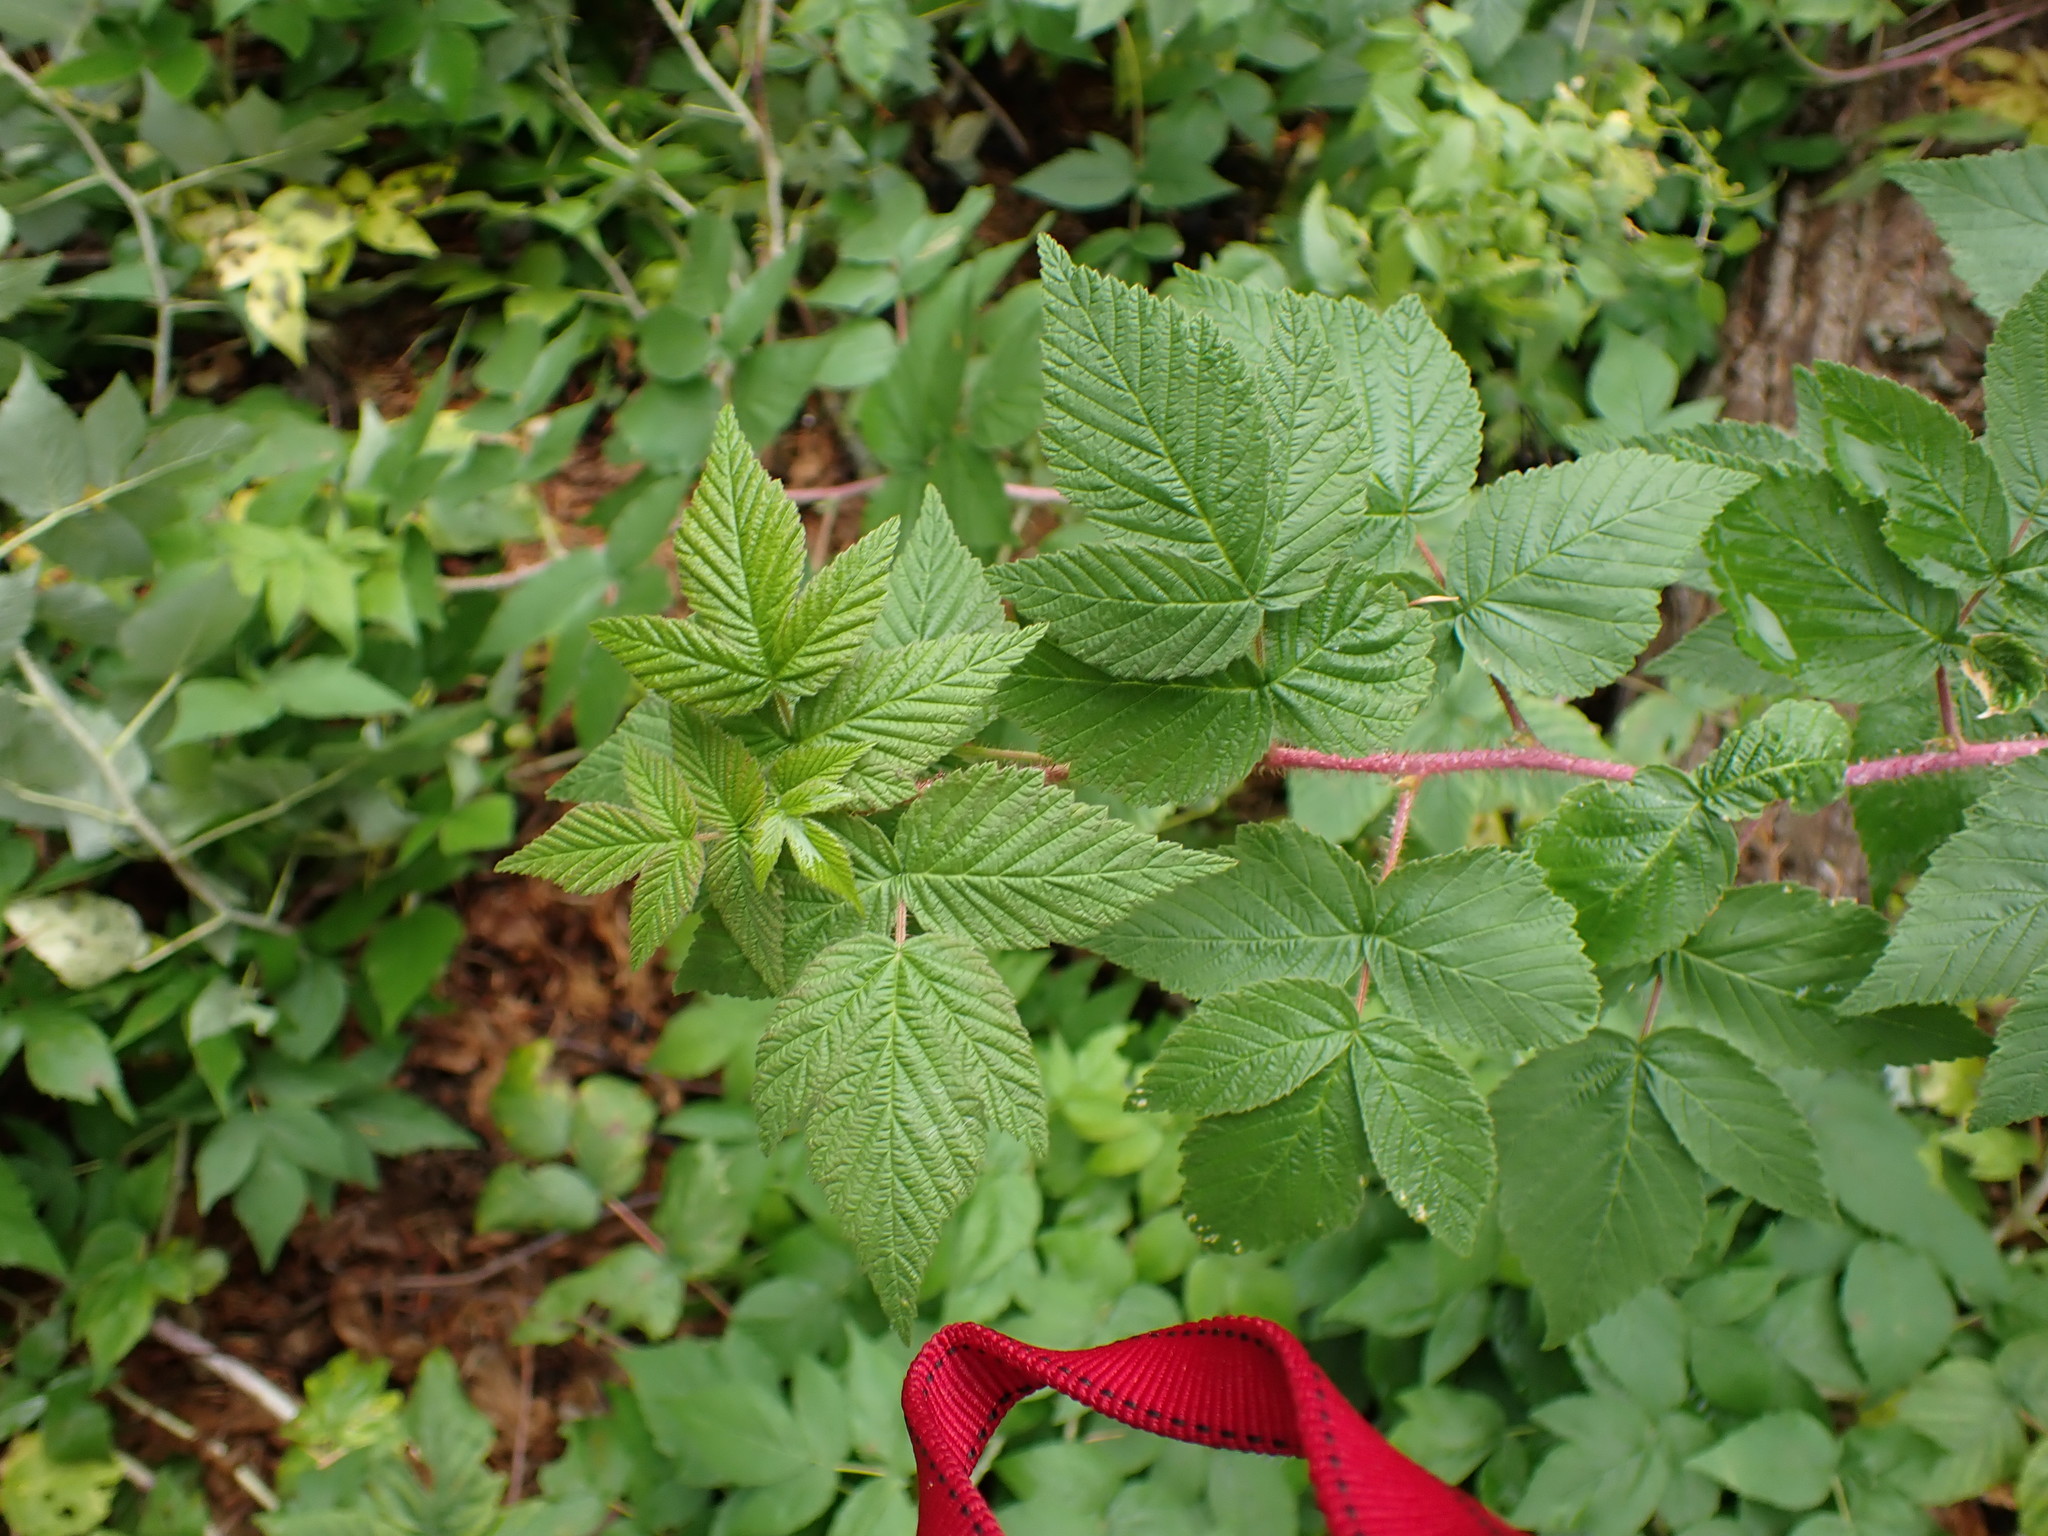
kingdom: Plantae
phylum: Tracheophyta
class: Magnoliopsida
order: Rosales
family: Rosaceae
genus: Rubus
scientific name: Rubus idaeus
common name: Raspberry
